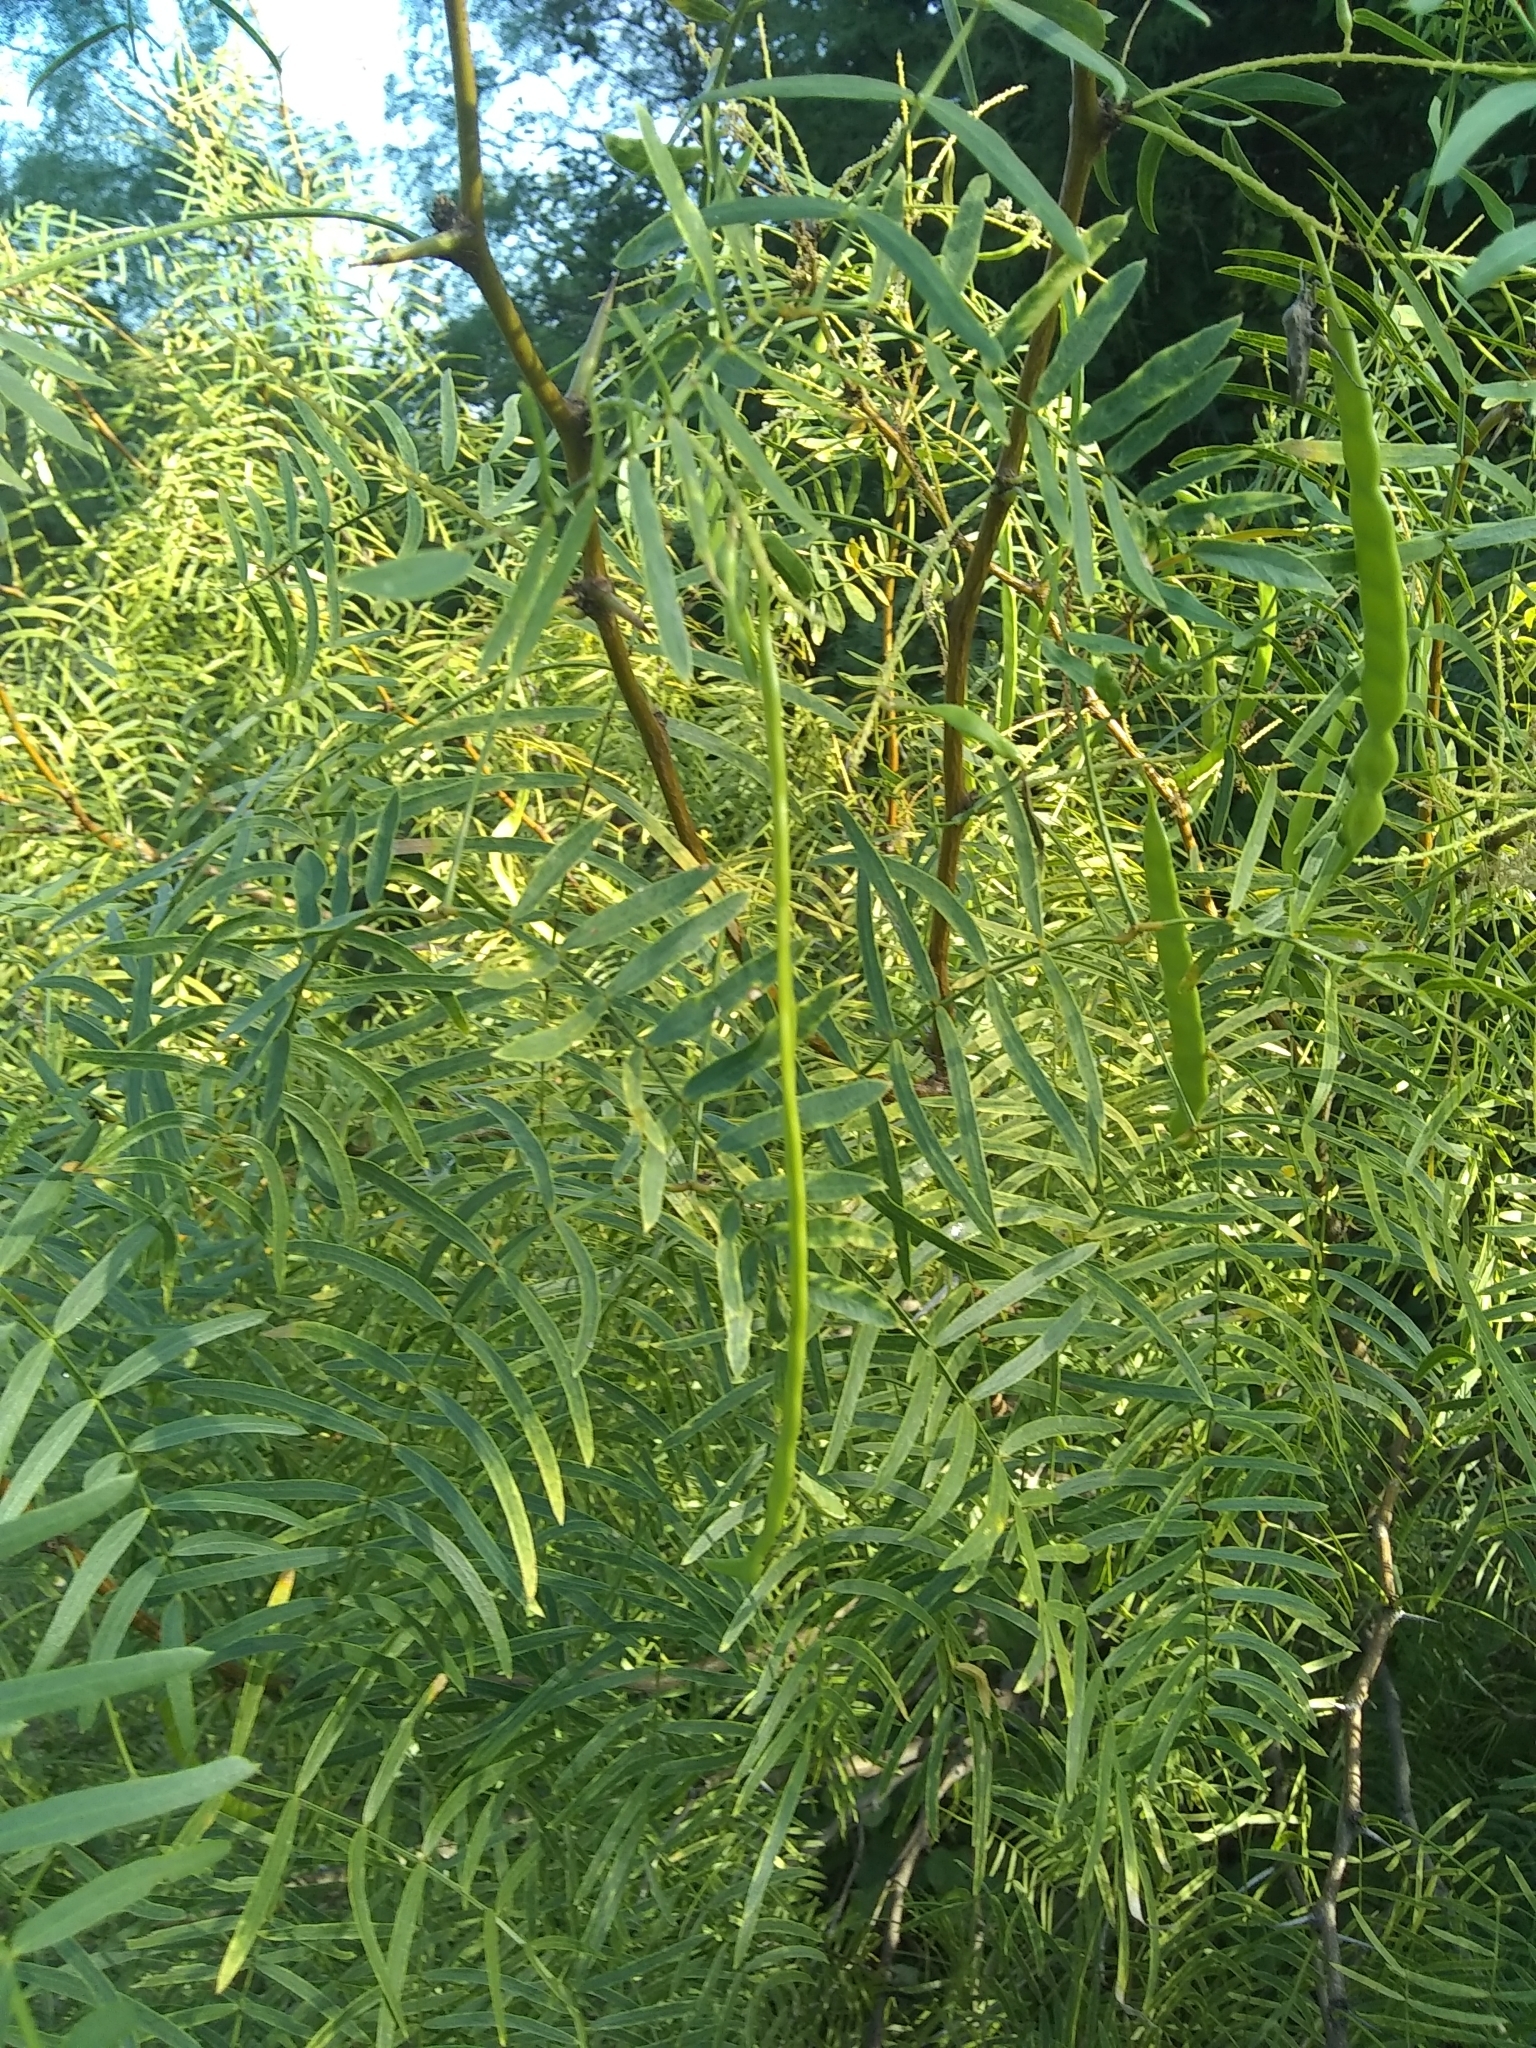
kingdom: Plantae
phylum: Tracheophyta
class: Magnoliopsida
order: Fabales
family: Fabaceae
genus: Prosopis
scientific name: Prosopis glandulosa
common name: Honey mesquite
